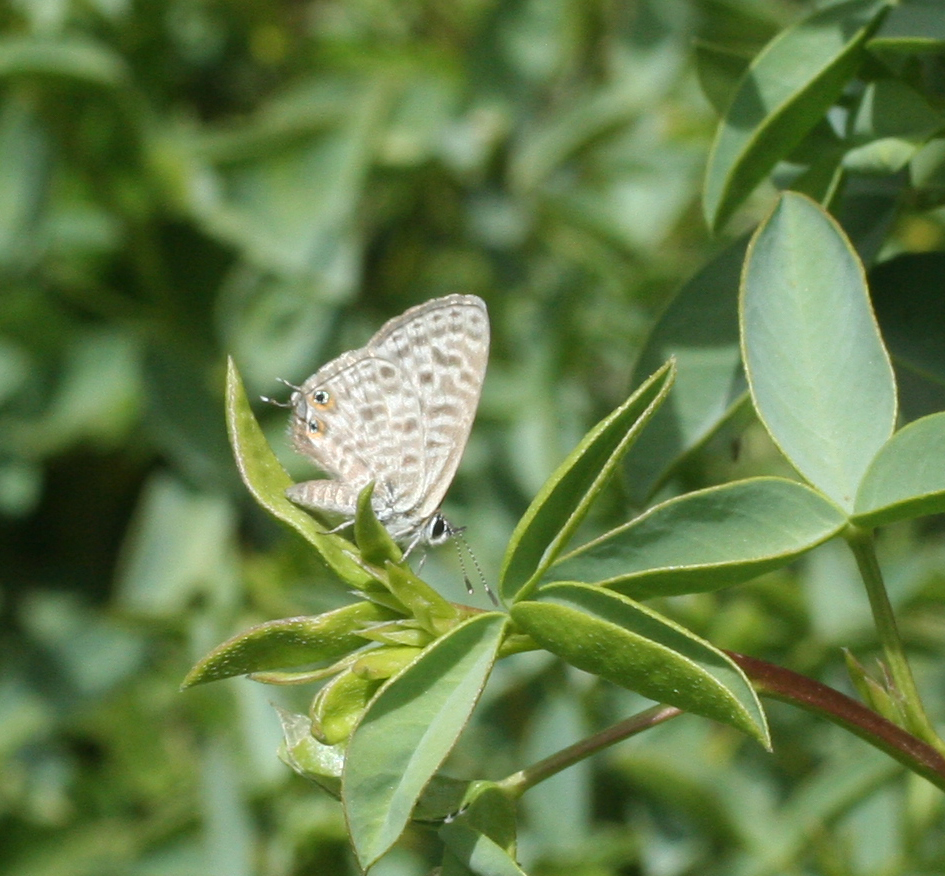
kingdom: Animalia
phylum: Arthropoda
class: Insecta
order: Lepidoptera
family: Lycaenidae
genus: Leptotes
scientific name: Leptotes pirithous
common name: Lang's short-tailed blue
